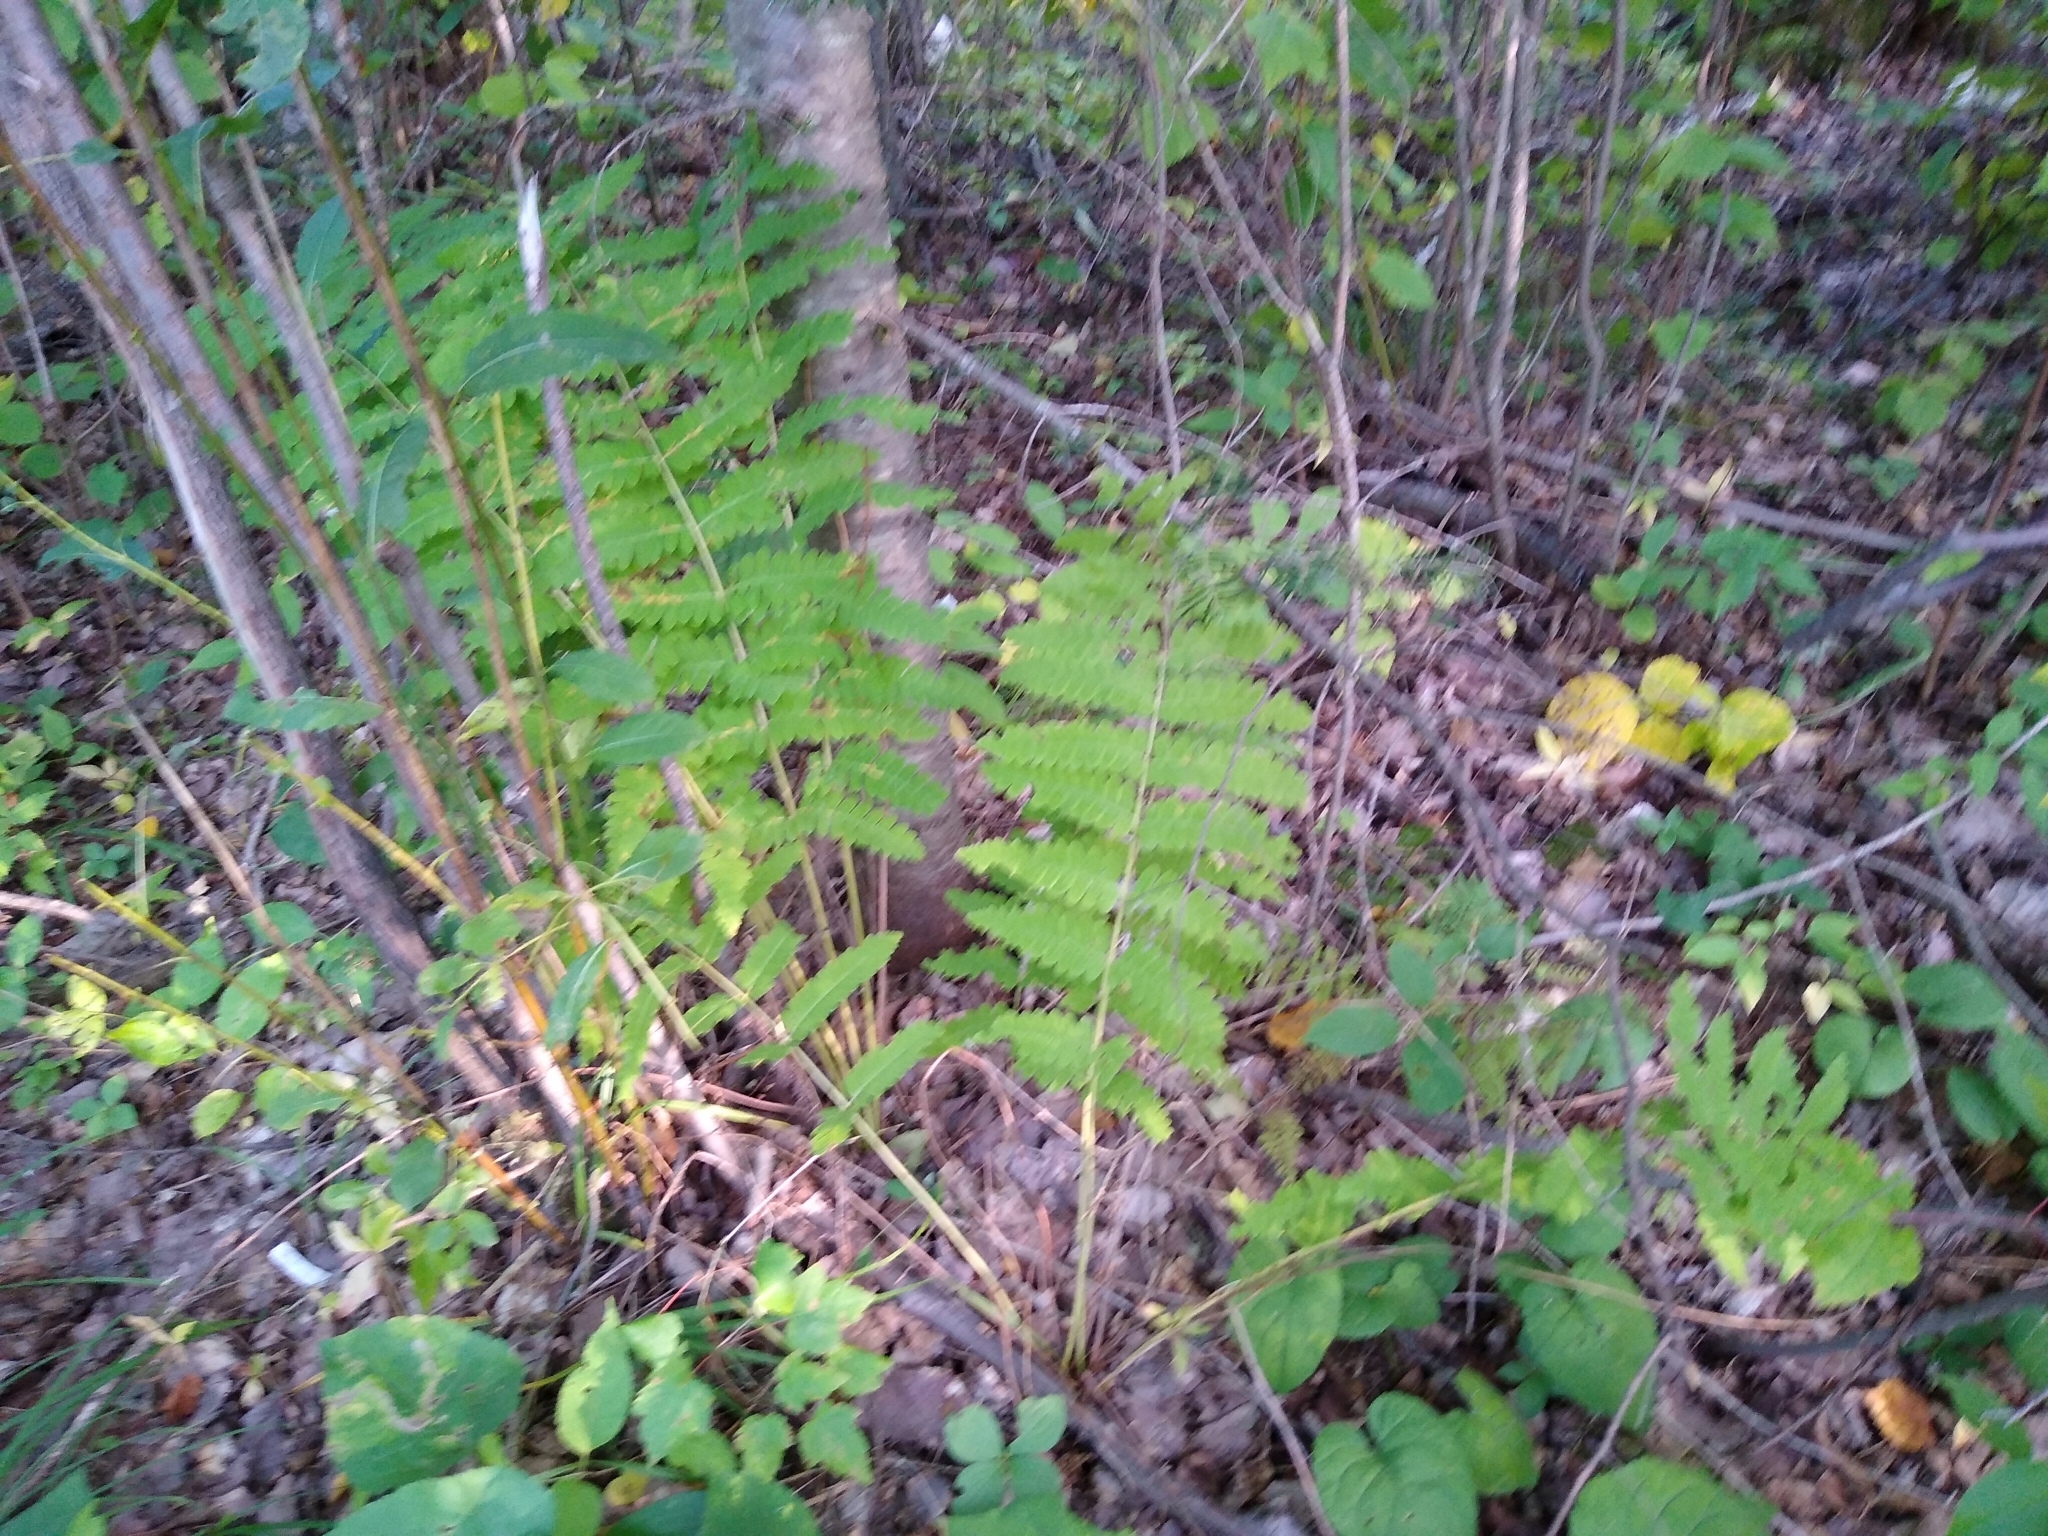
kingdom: Plantae
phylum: Tracheophyta
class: Polypodiopsida
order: Osmundales
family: Osmundaceae
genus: Claytosmunda
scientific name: Claytosmunda claytoniana
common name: Clayton's fern
